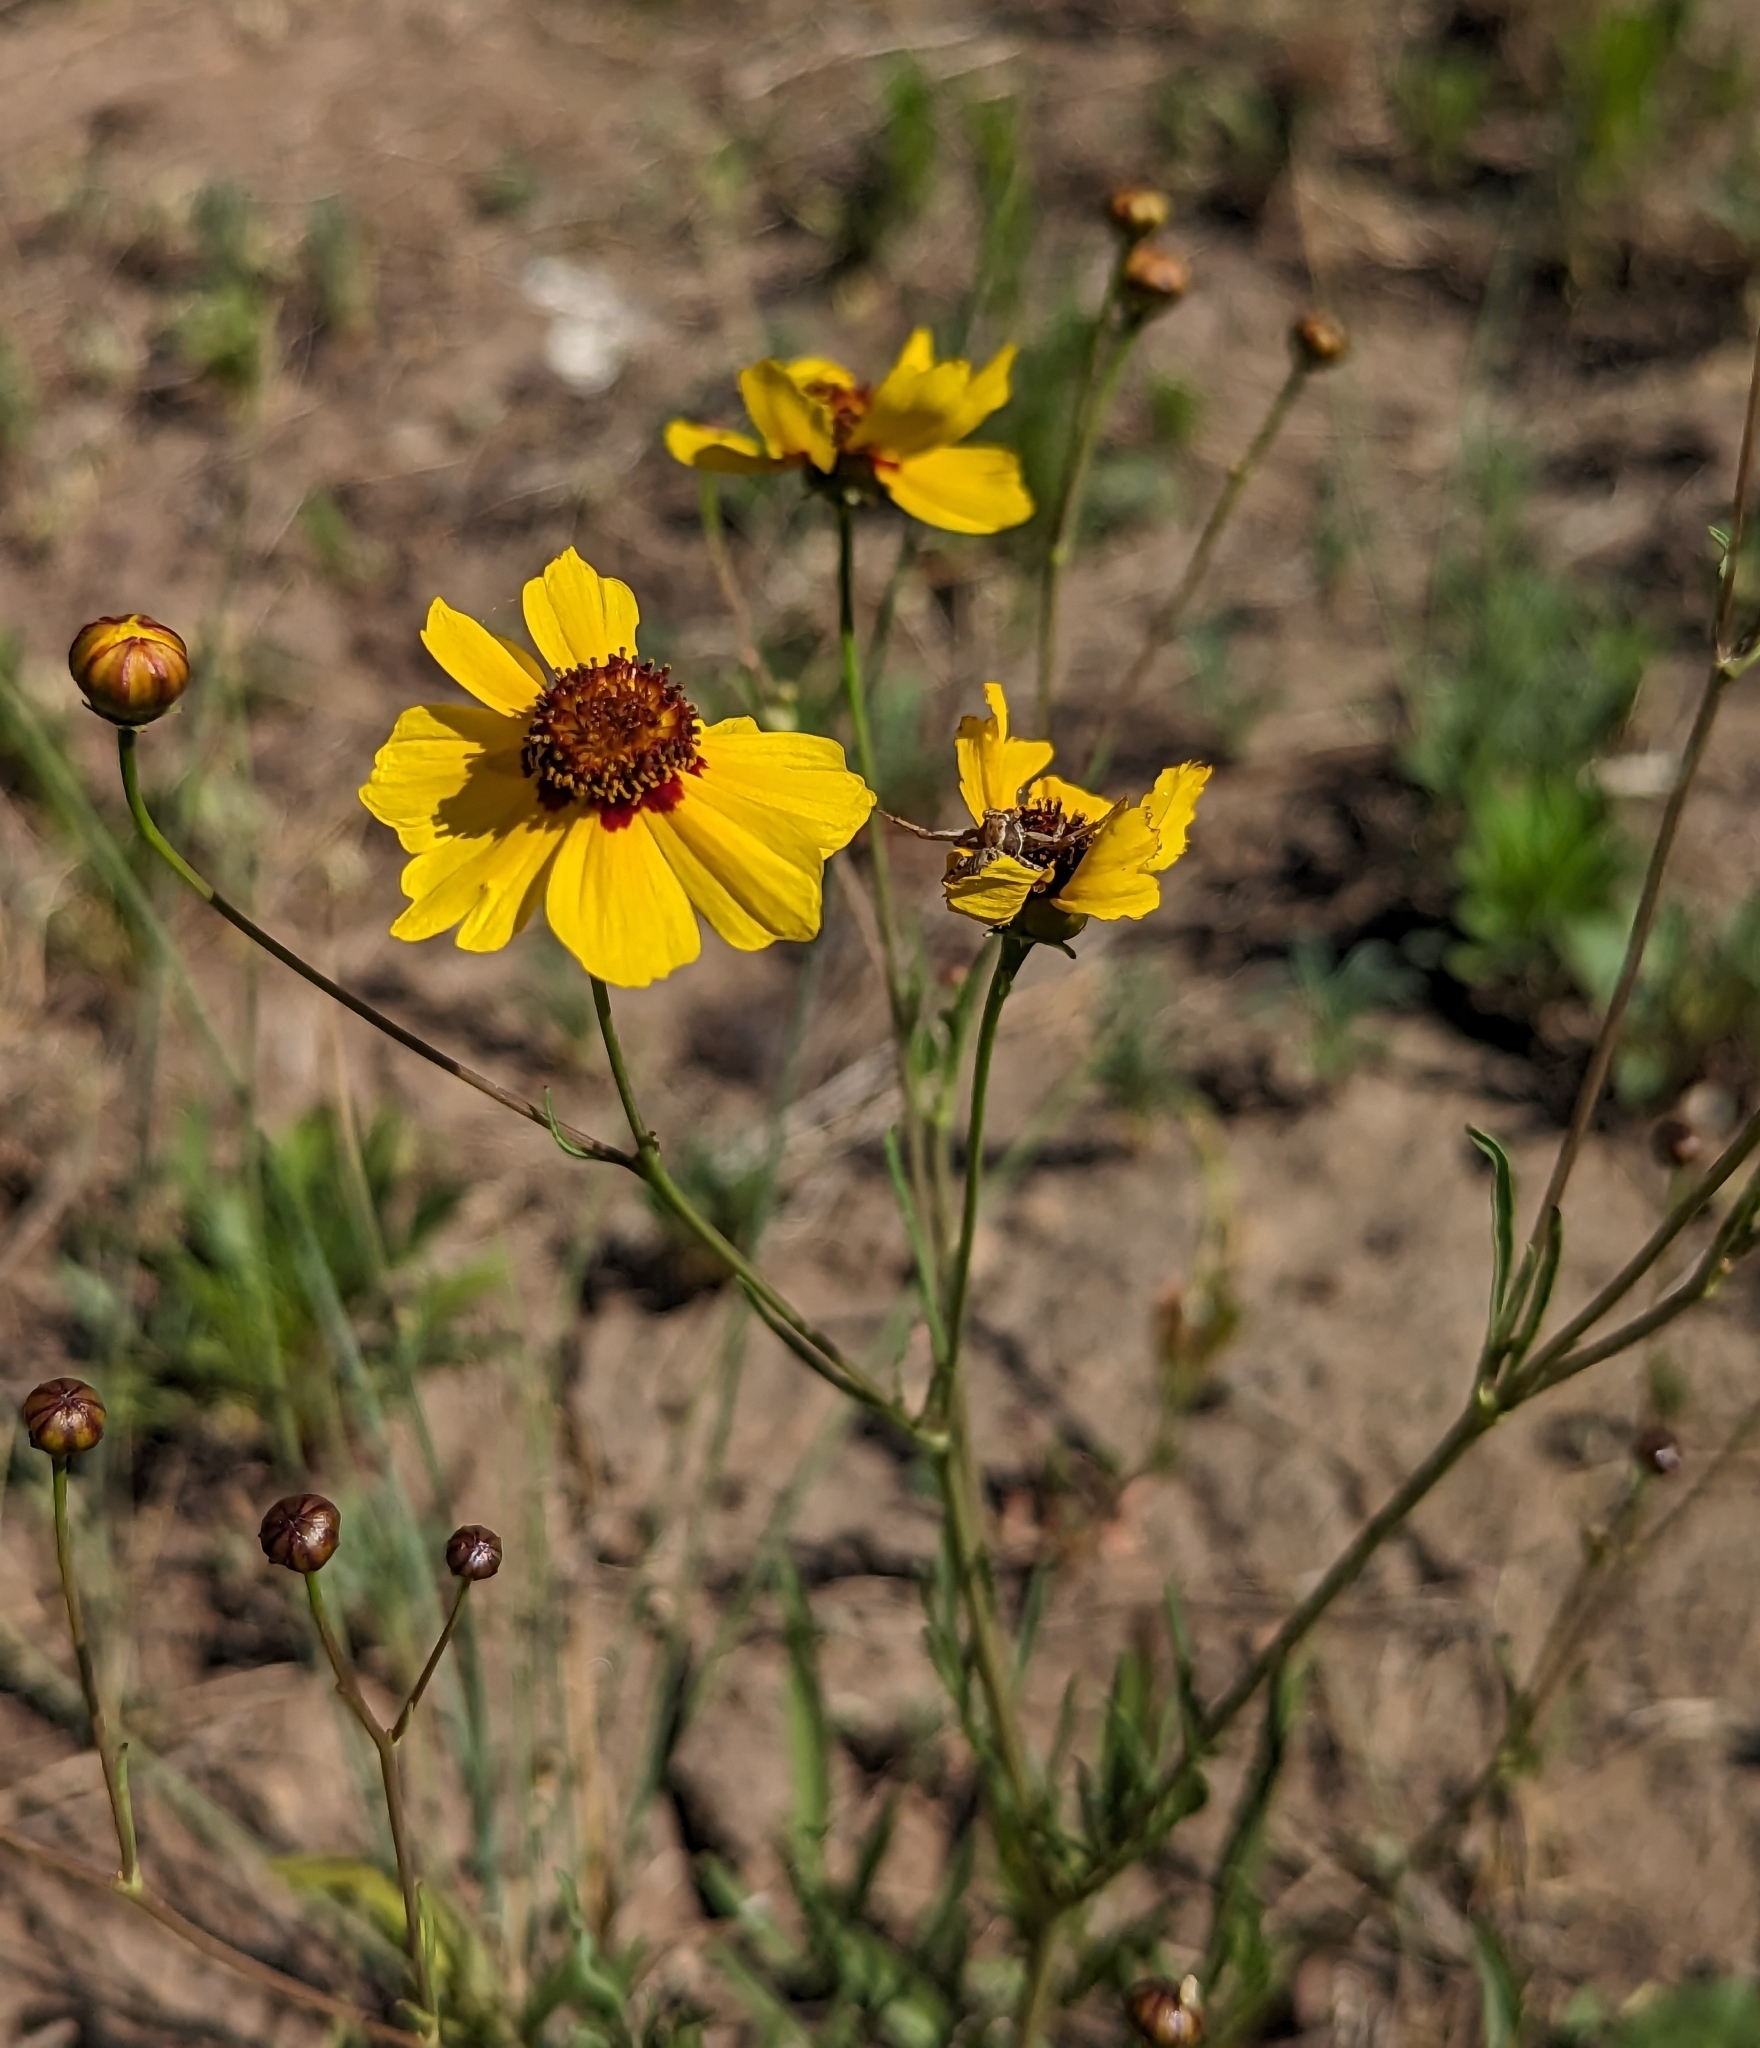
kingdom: Plantae
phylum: Tracheophyta
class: Magnoliopsida
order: Asterales
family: Asteraceae
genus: Coreopsis
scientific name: Coreopsis tinctoria
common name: Garden tickseed
